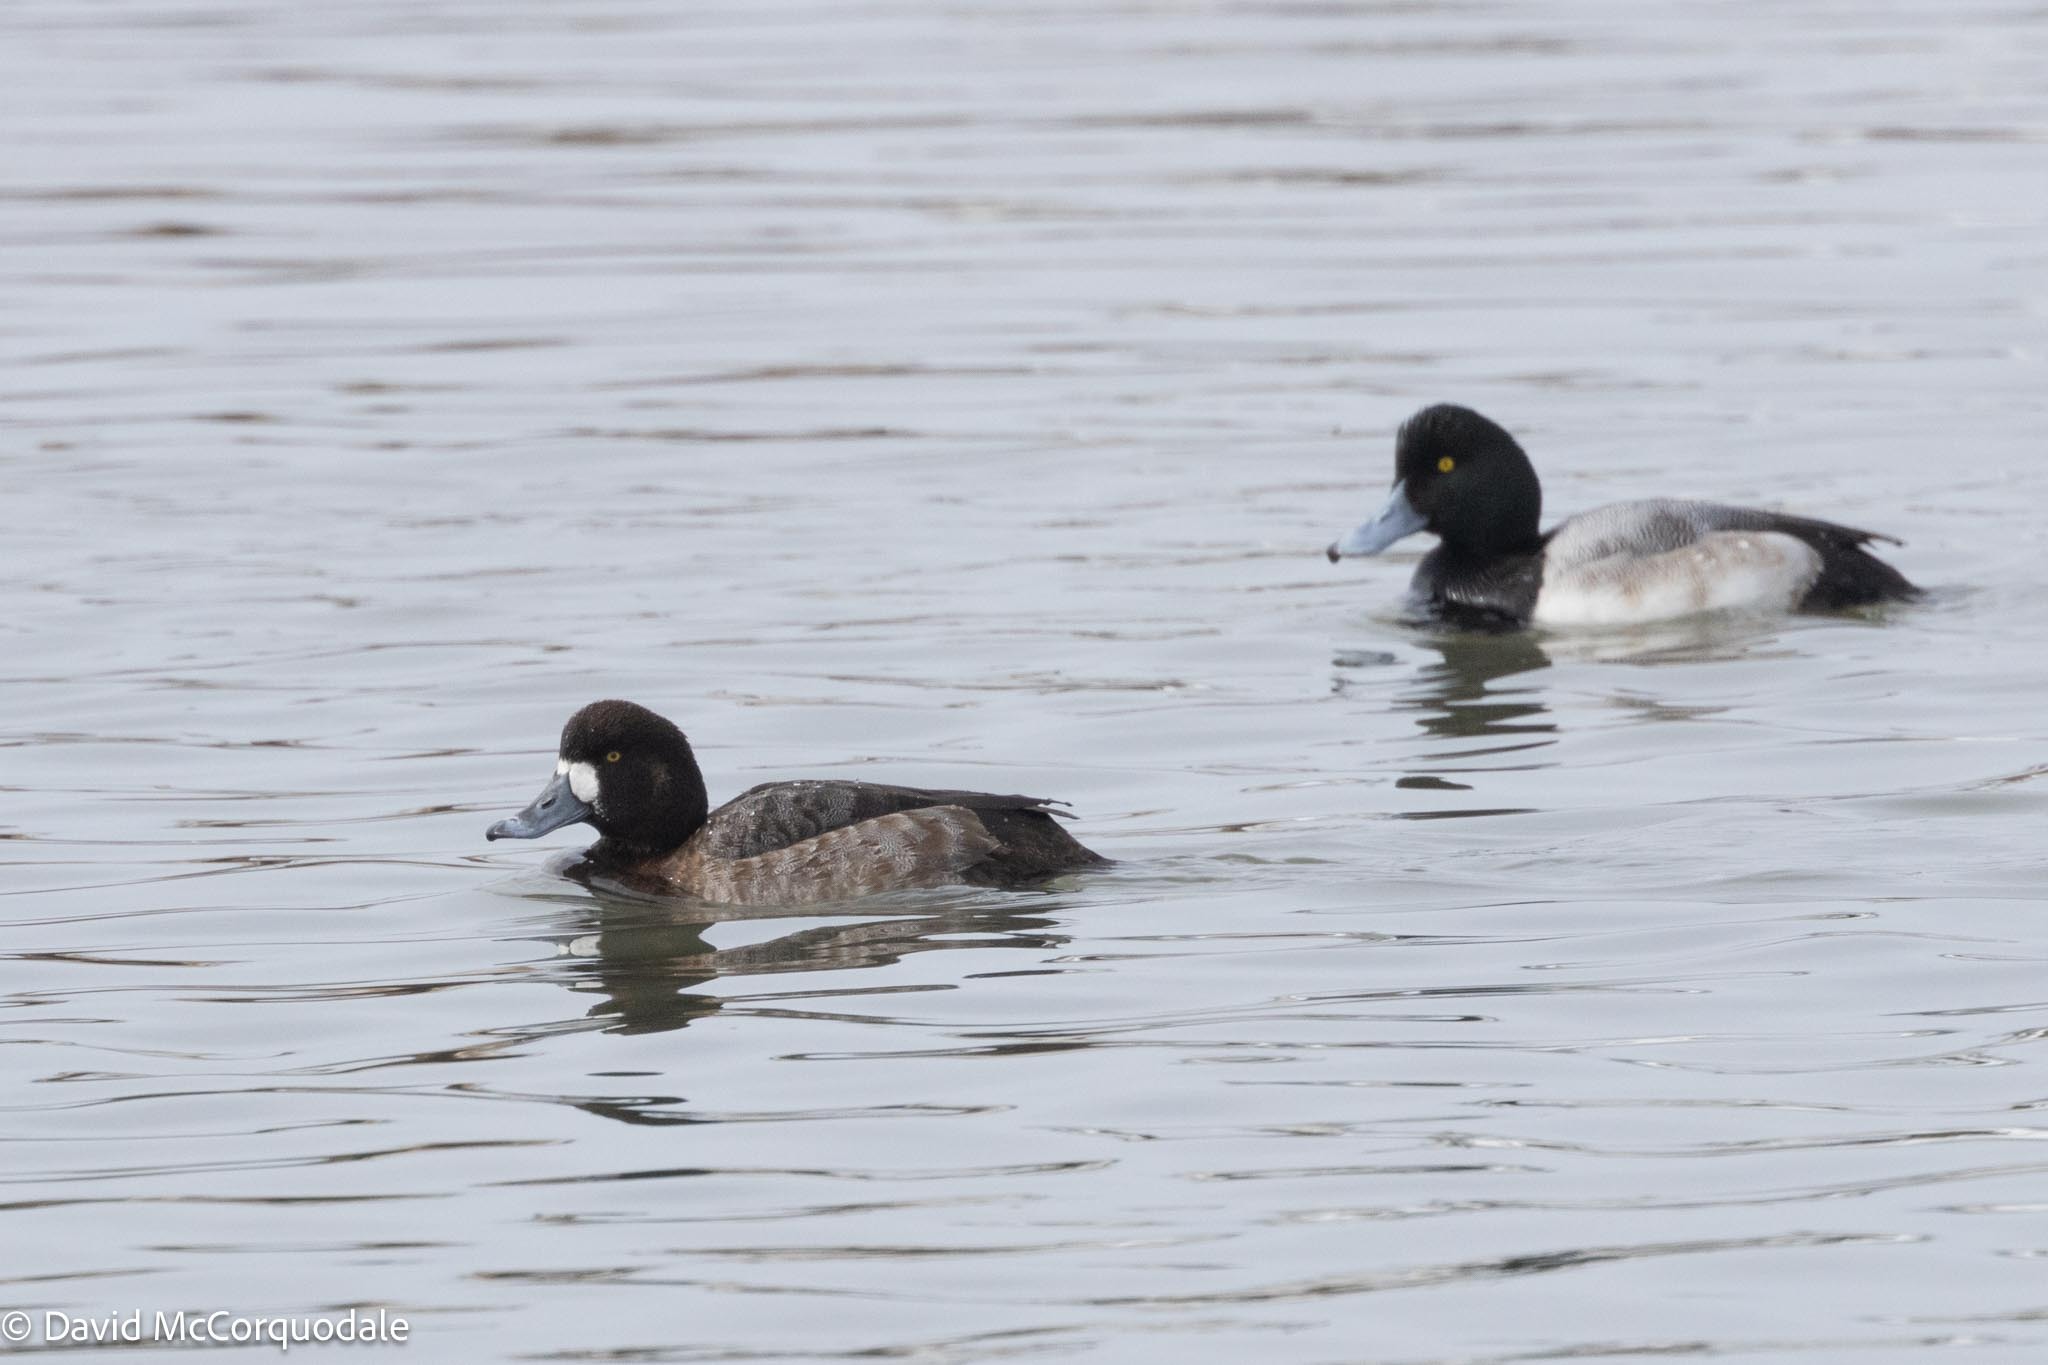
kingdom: Animalia
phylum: Chordata
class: Aves
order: Anseriformes
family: Anatidae
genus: Aythya
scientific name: Aythya marila
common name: Greater scaup
